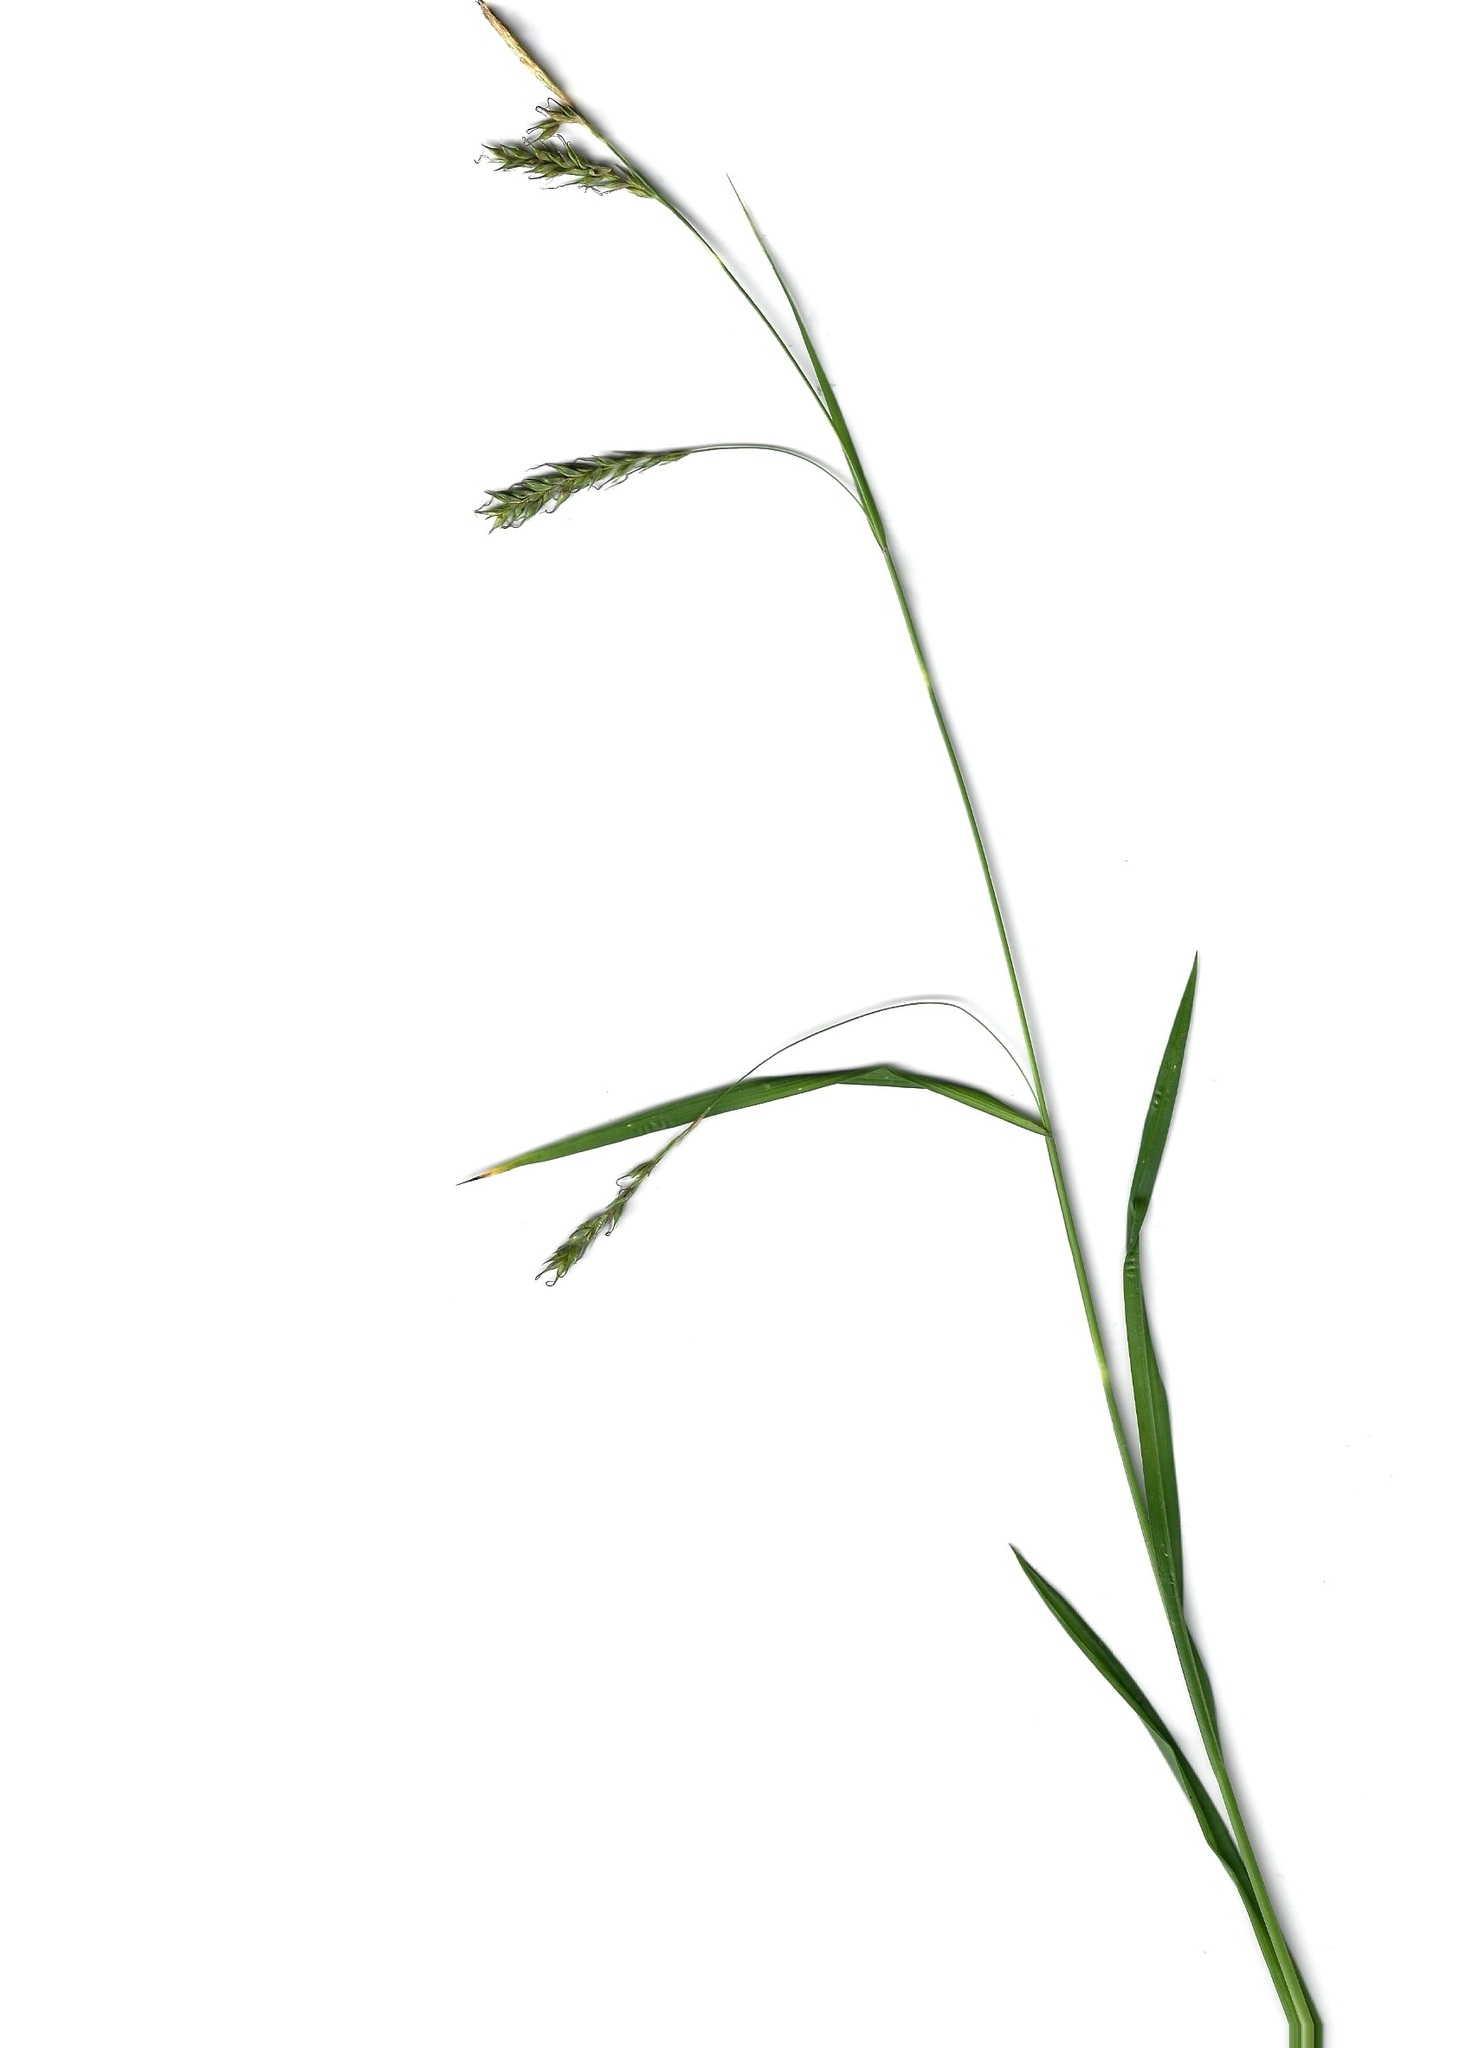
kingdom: Plantae
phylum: Tracheophyta
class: Liliopsida
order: Poales
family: Cyperaceae
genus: Carex
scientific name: Carex sylvatica
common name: Wood-sedge
